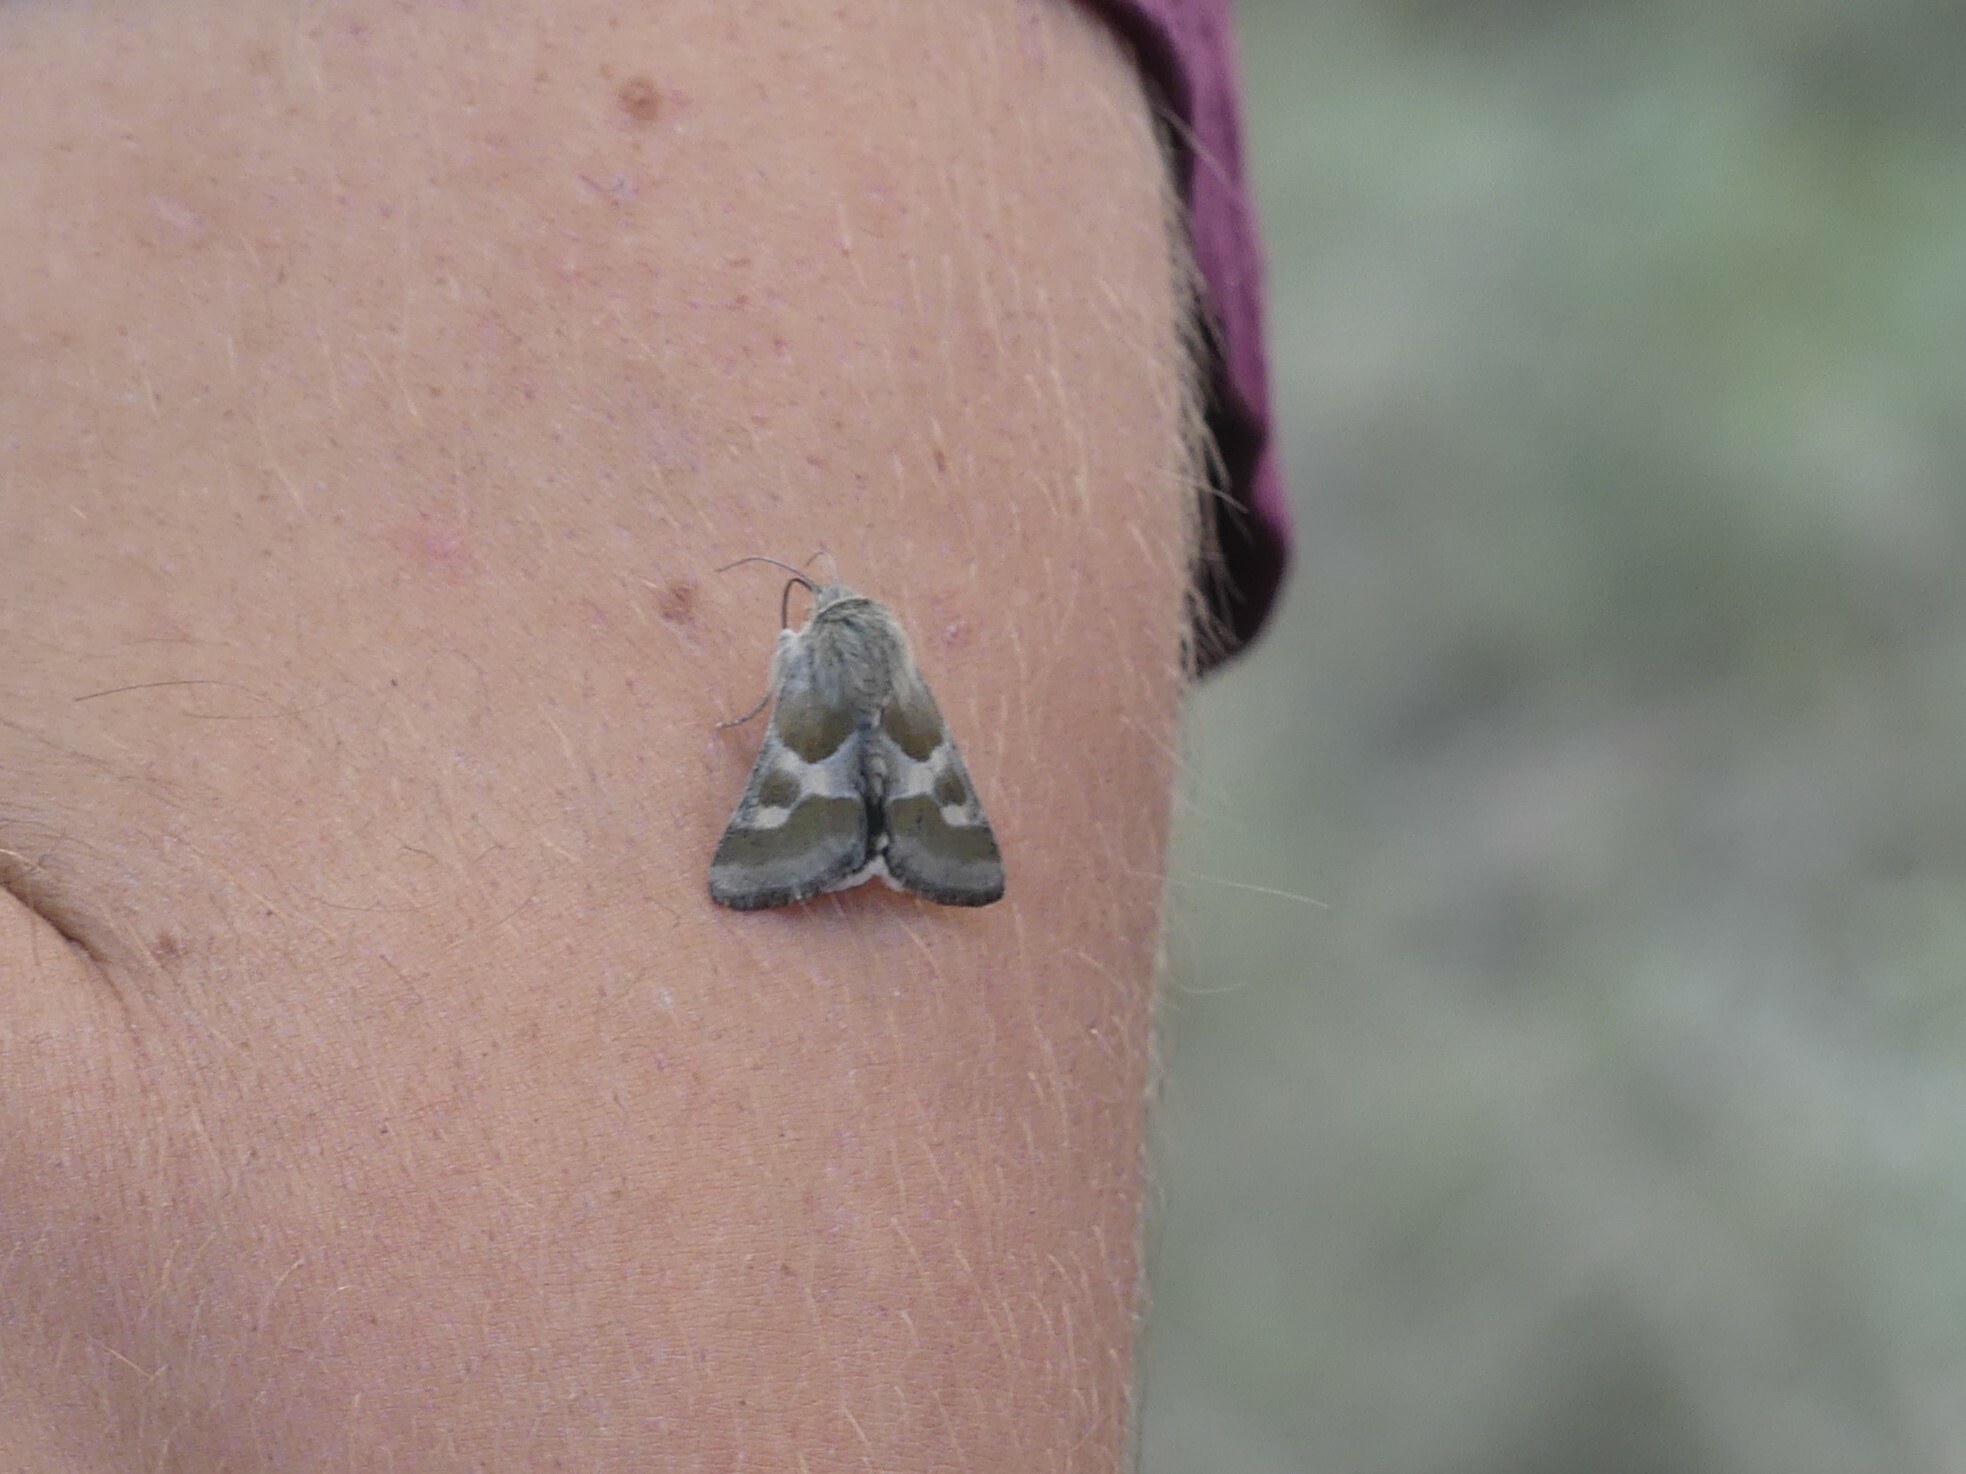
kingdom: Animalia
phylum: Arthropoda
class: Insecta
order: Lepidoptera
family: Noctuidae
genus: Schinia
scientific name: Schinia suetus
